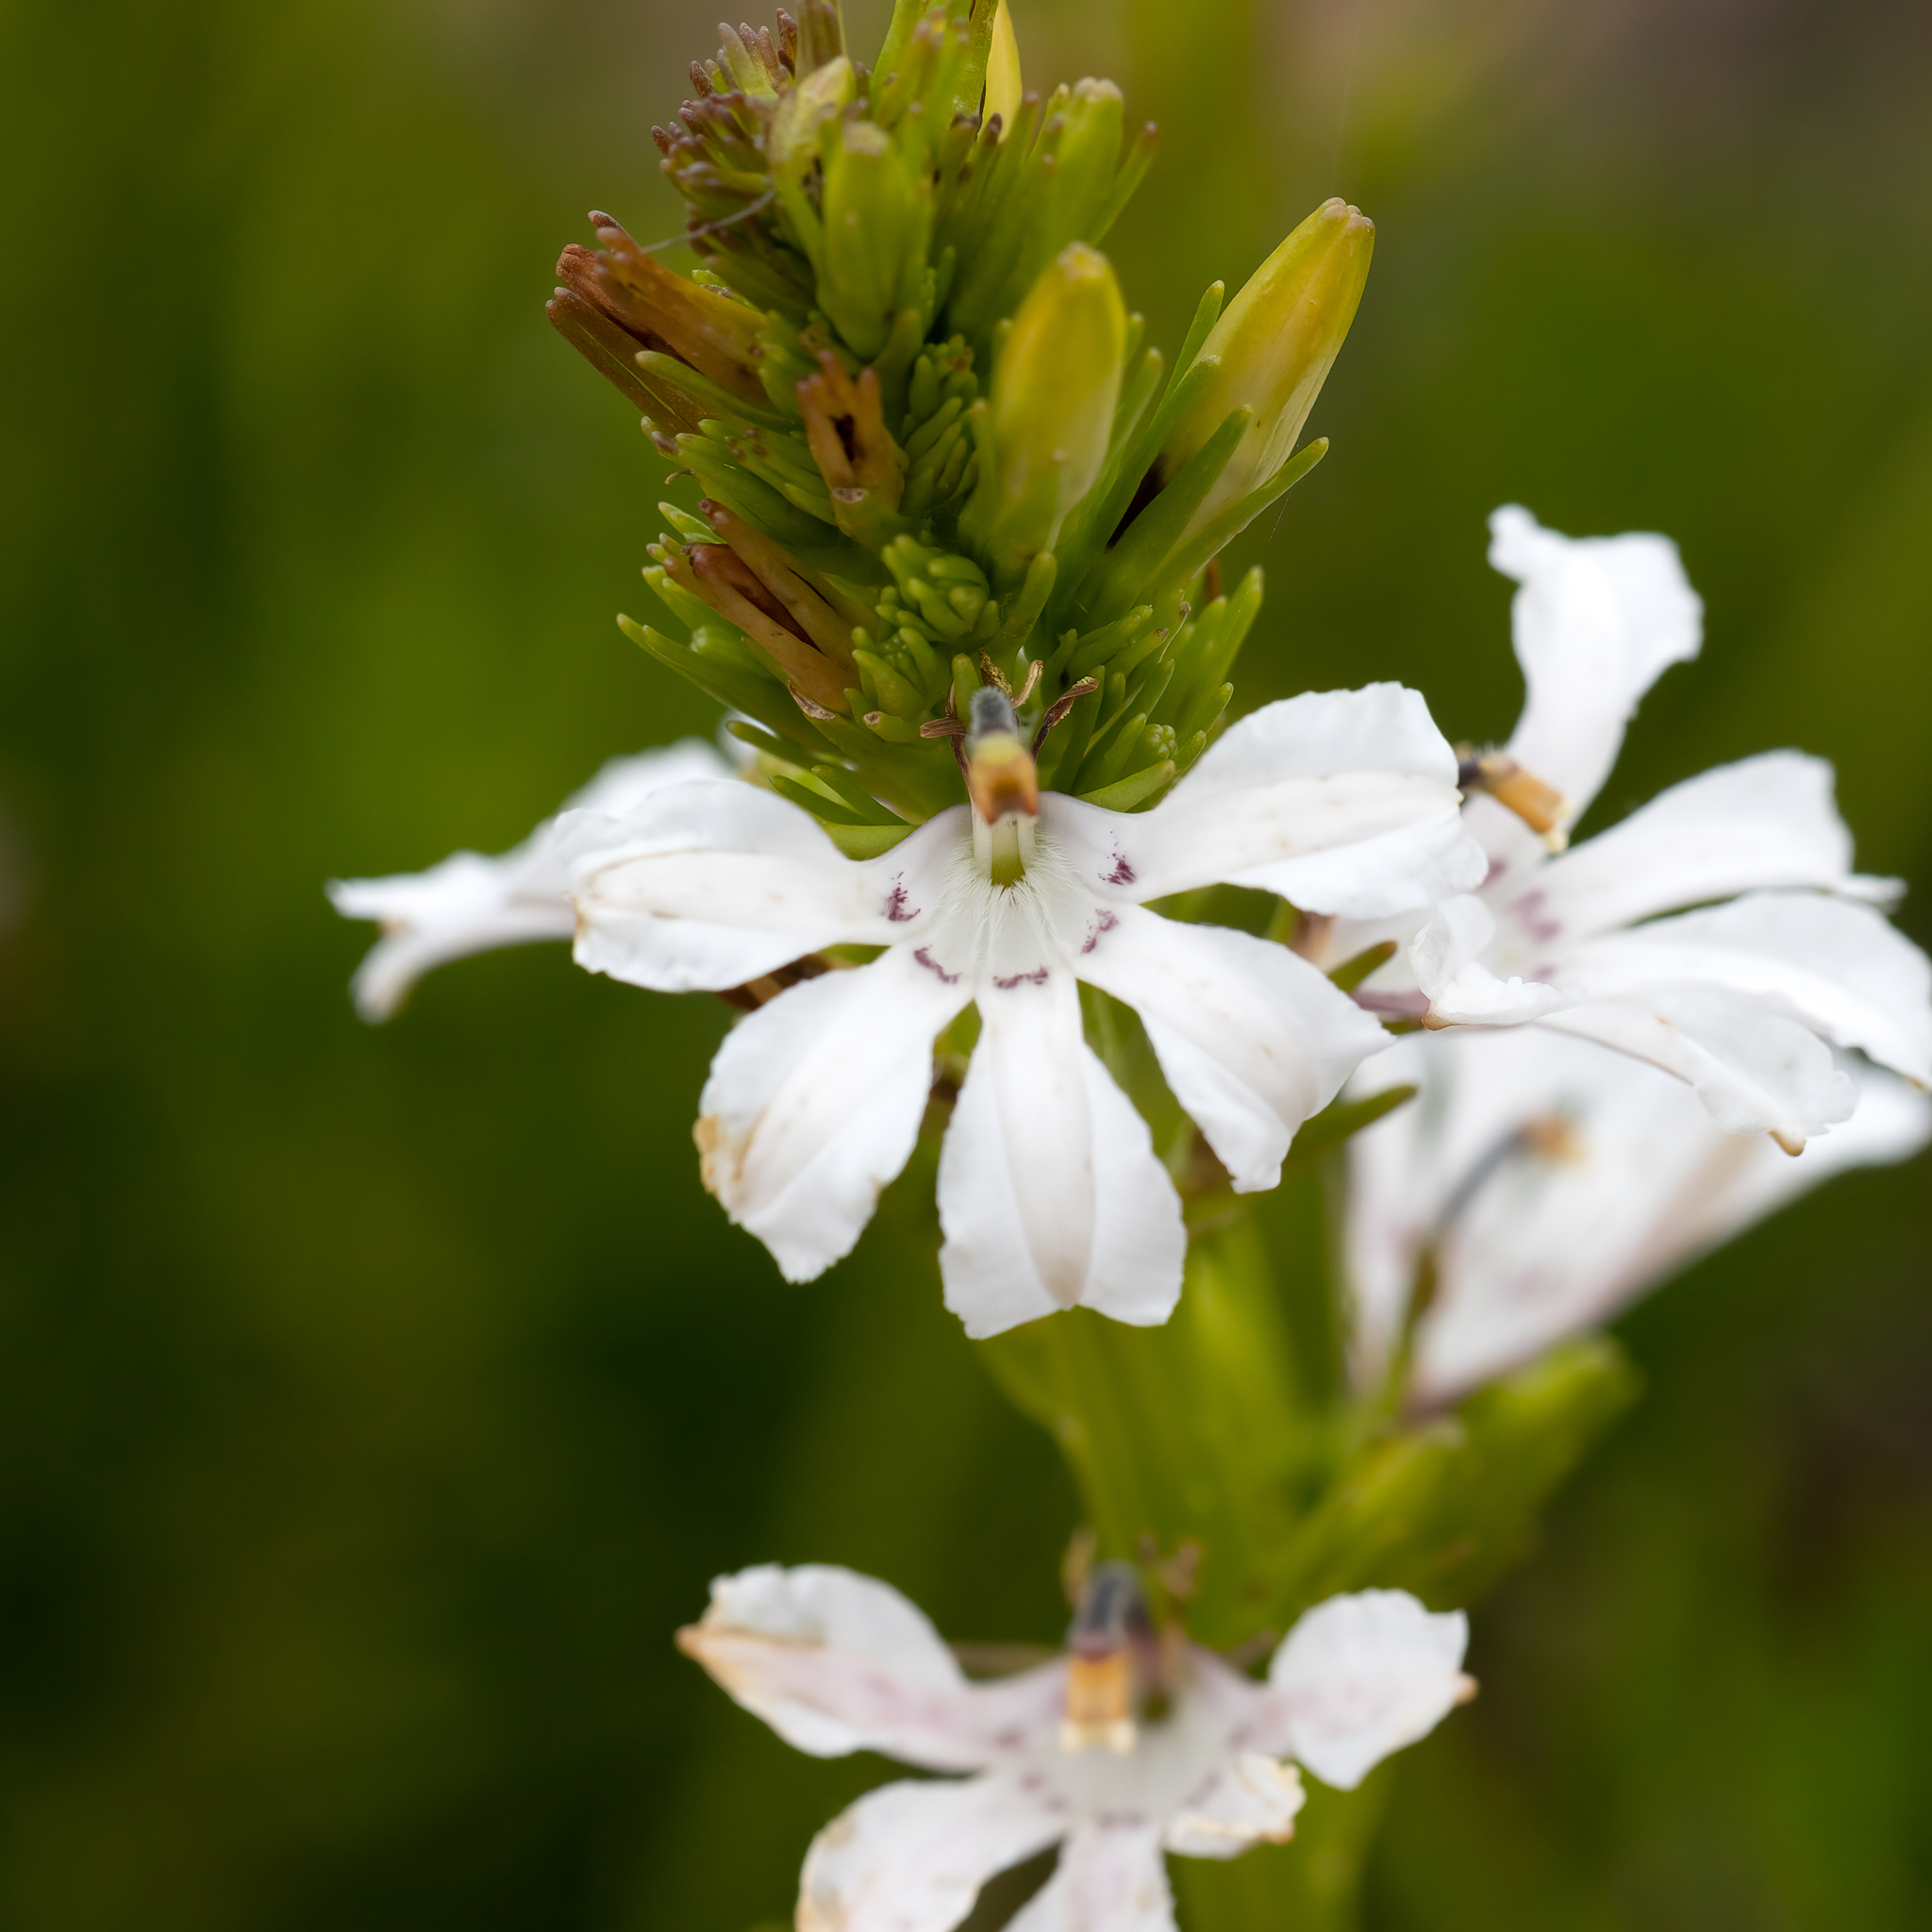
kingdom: Plantae
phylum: Tracheophyta
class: Magnoliopsida
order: Asterales
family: Goodeniaceae
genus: Goodenia
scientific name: Goodenia scapigera
